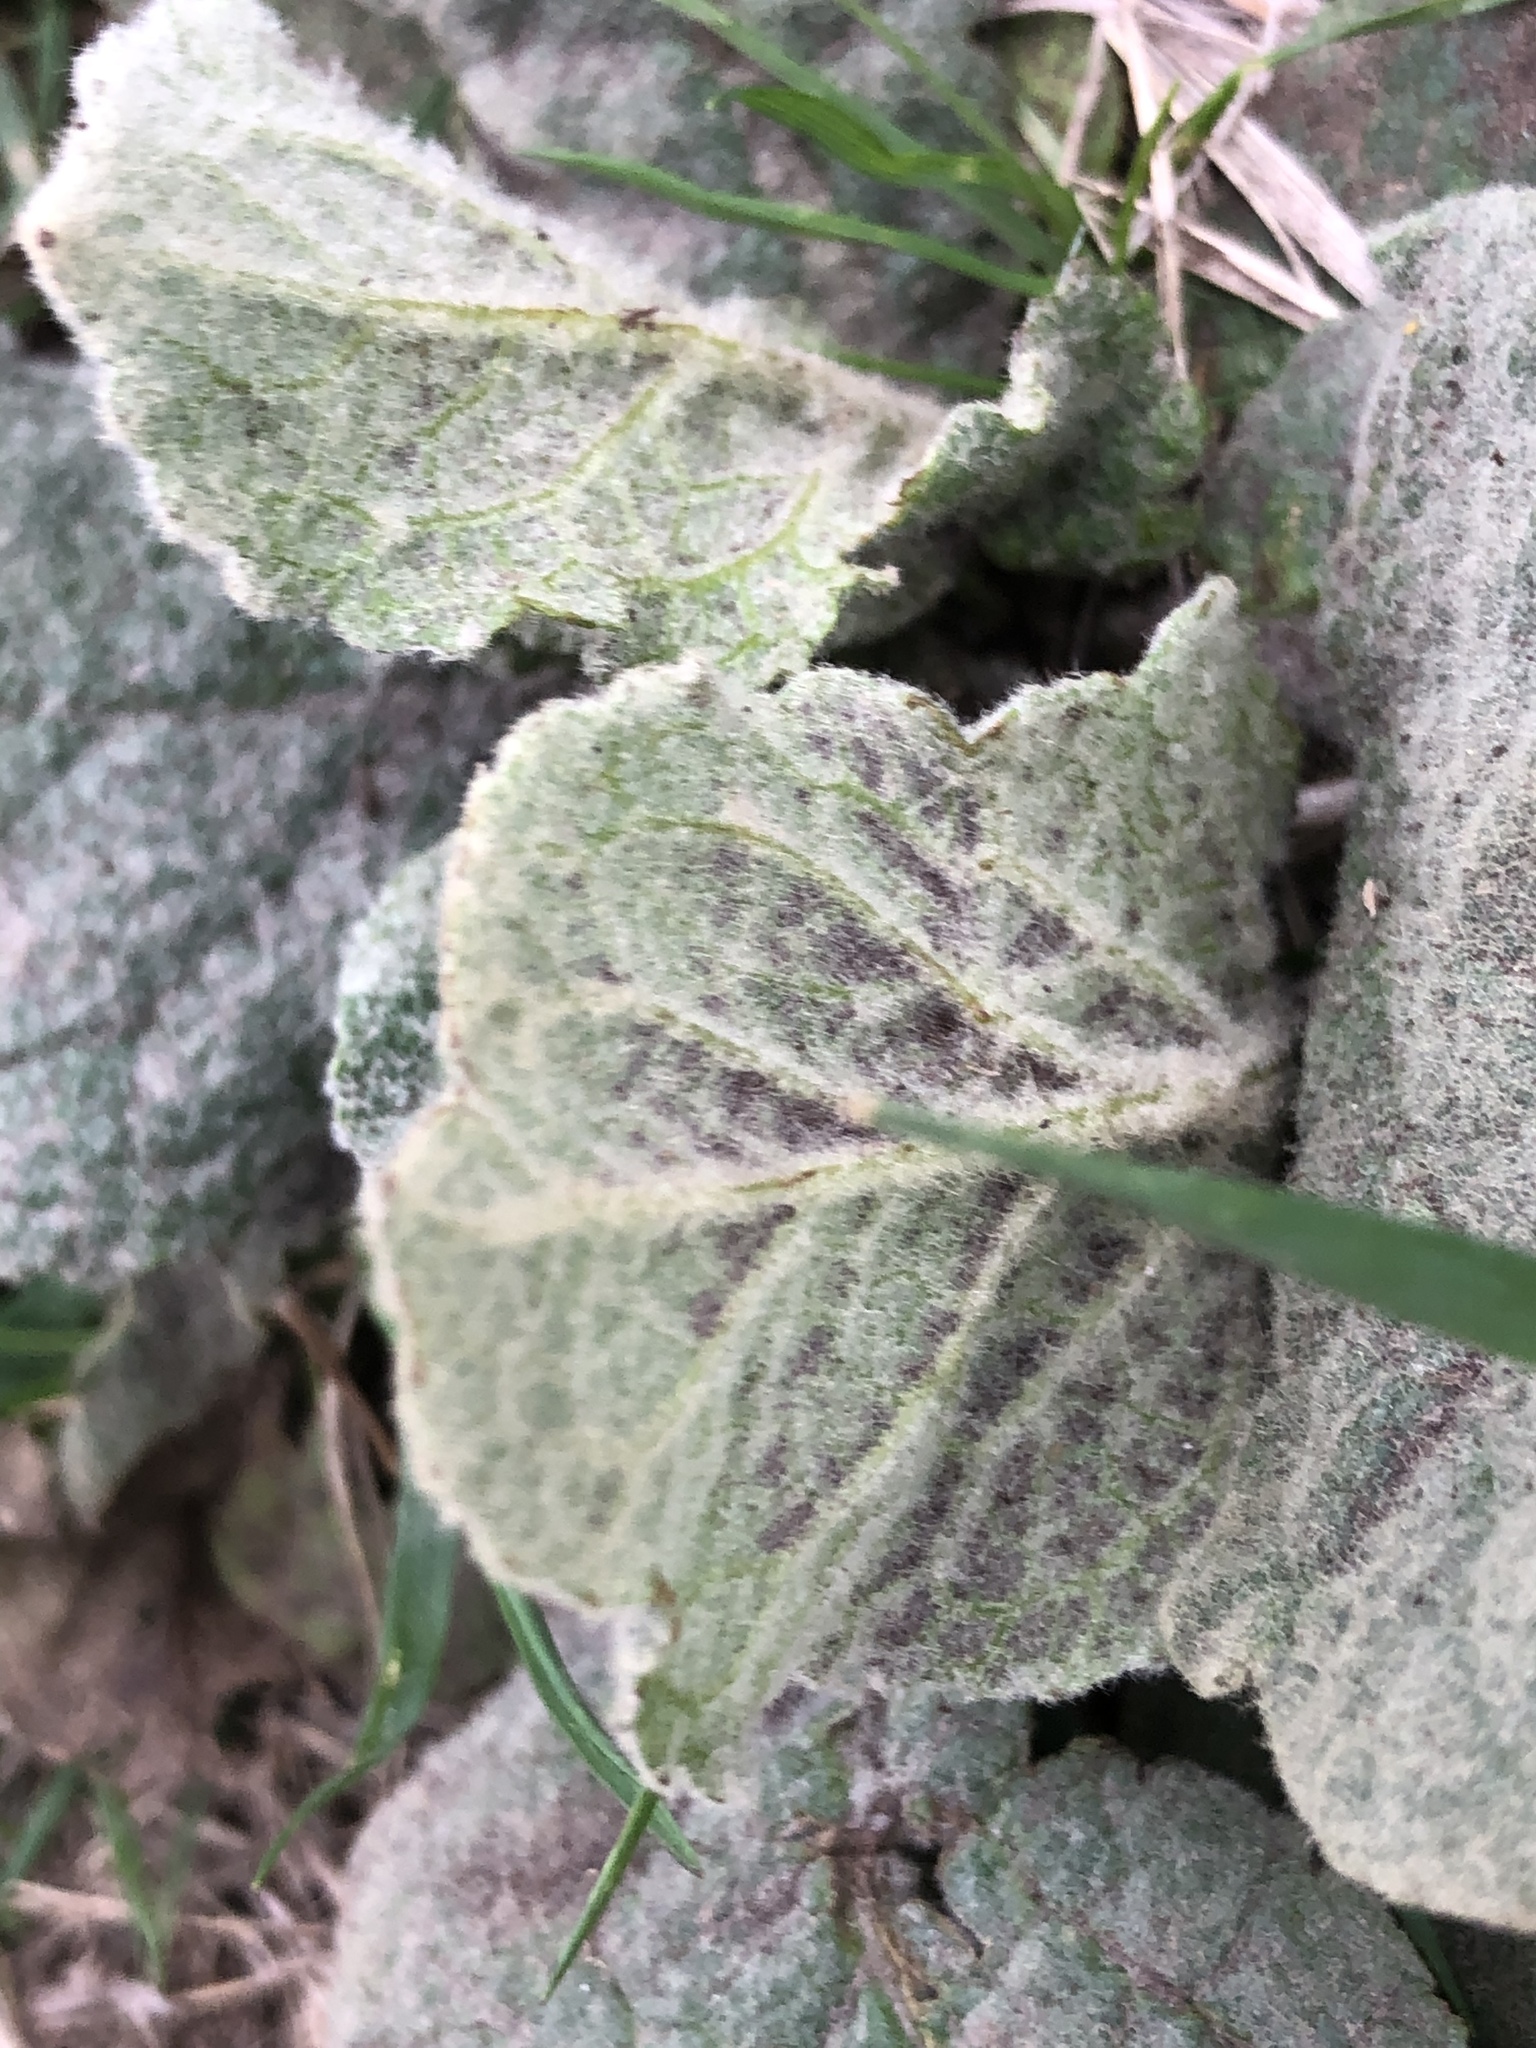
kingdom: Plantae
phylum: Tracheophyta
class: Magnoliopsida
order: Lamiales
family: Scrophulariaceae
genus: Verbascum
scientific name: Verbascum thapsus
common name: Common mullein
